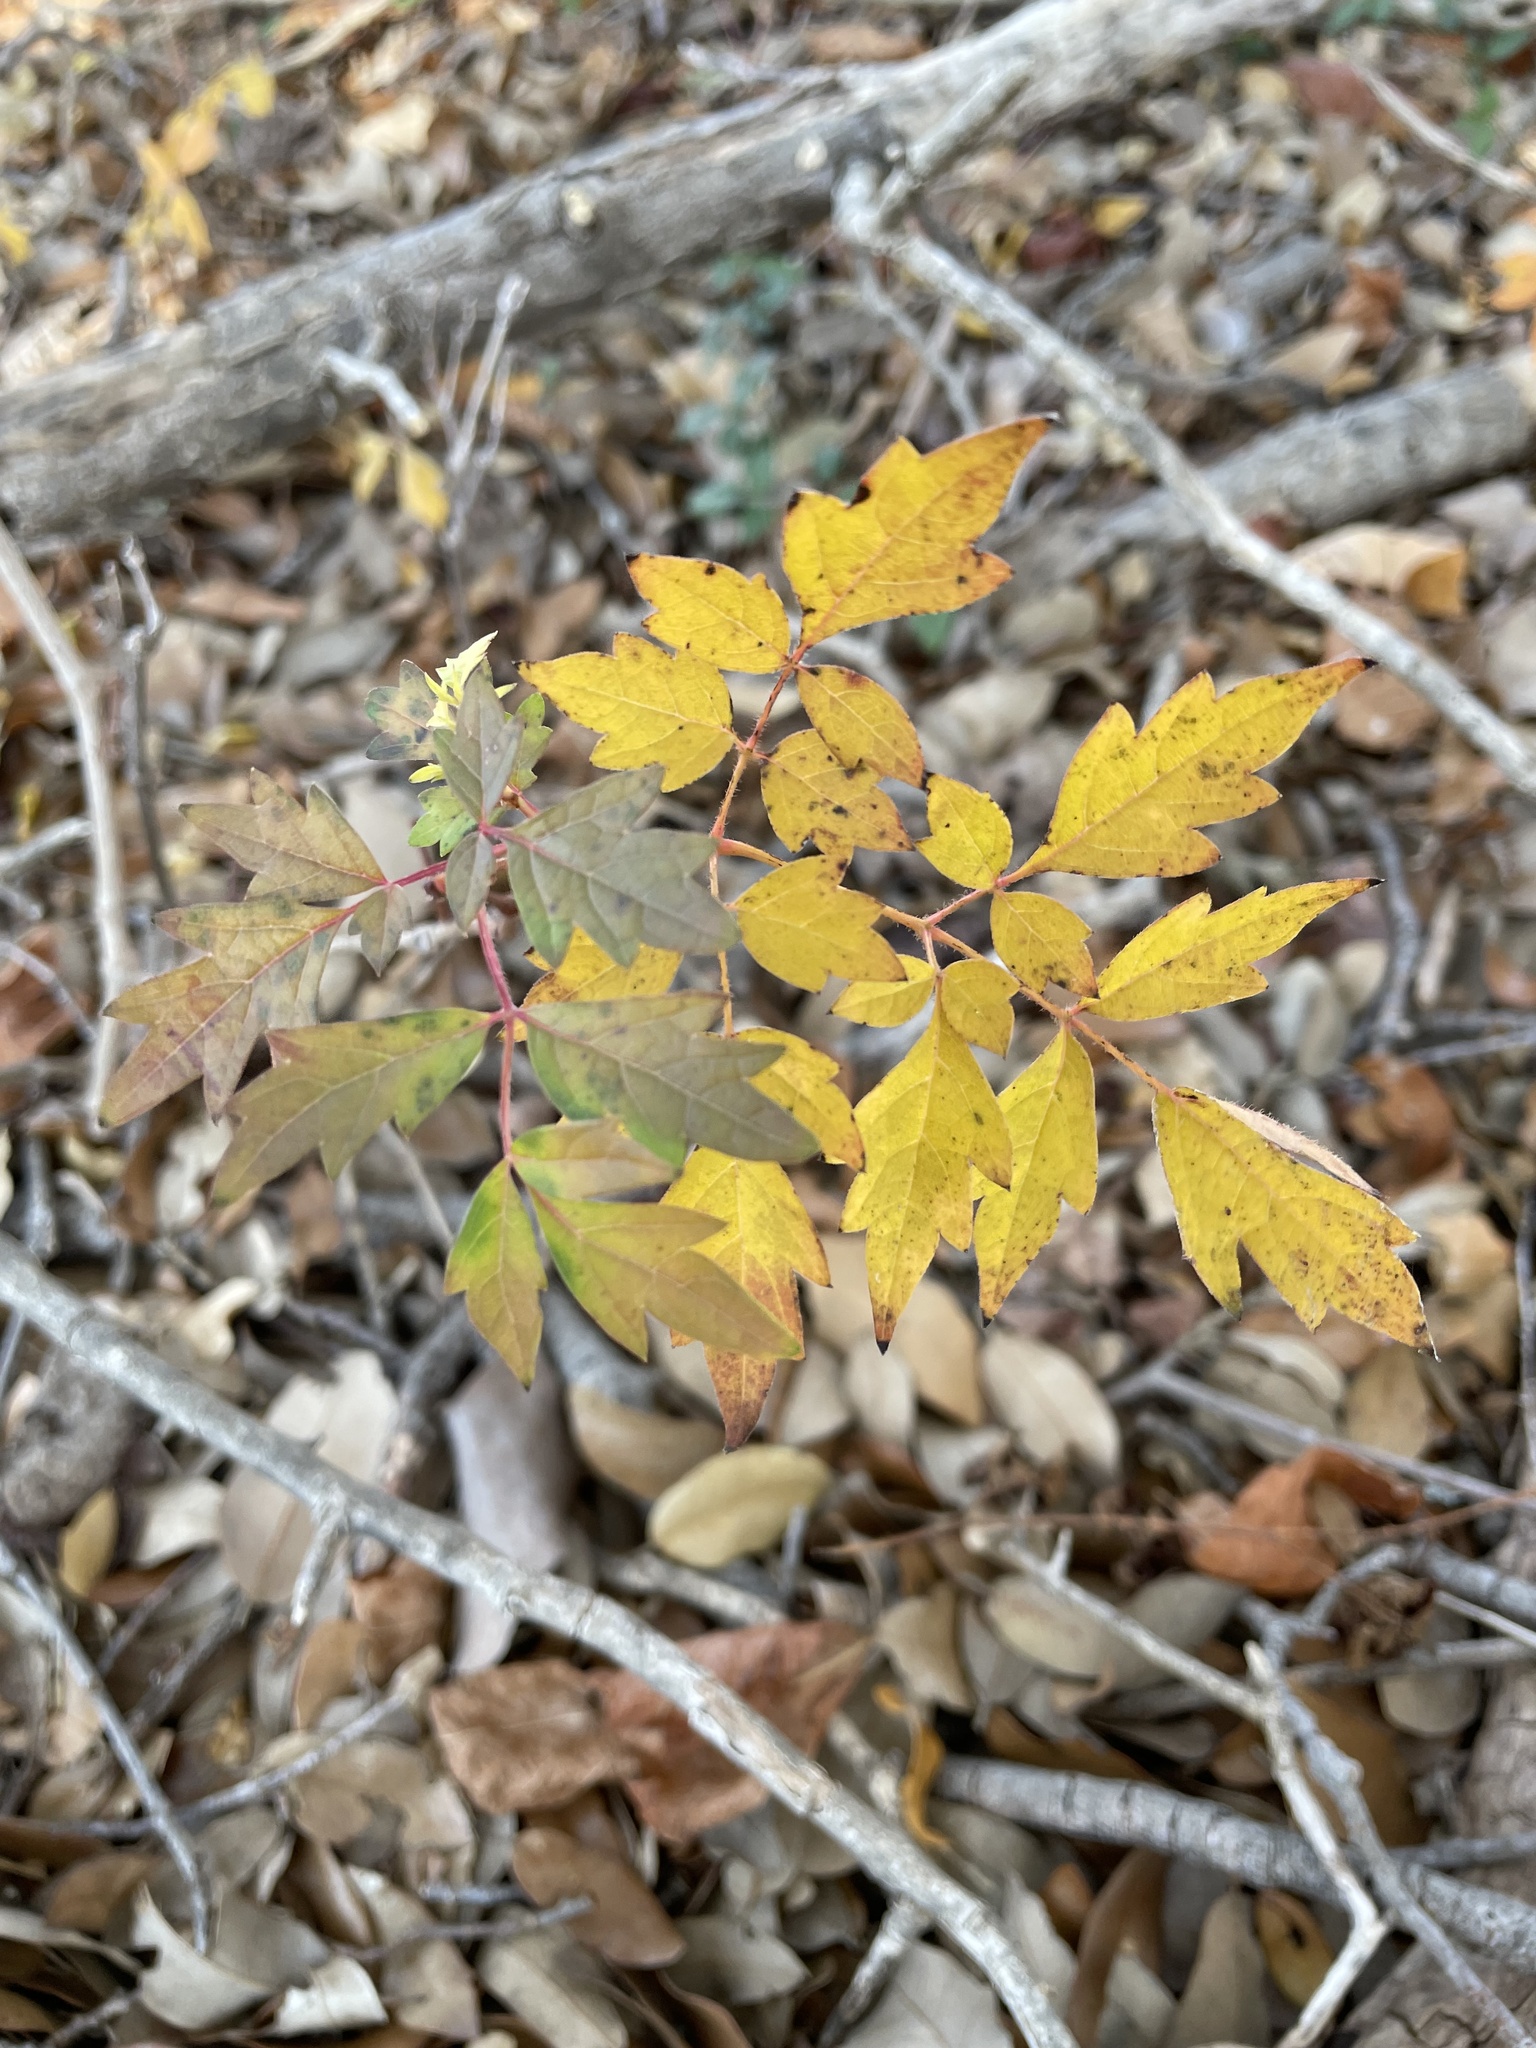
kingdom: Plantae
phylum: Tracheophyta
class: Magnoliopsida
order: Vitales
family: Vitaceae
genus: Nekemias
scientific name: Nekemias arborea
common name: Peppervine
